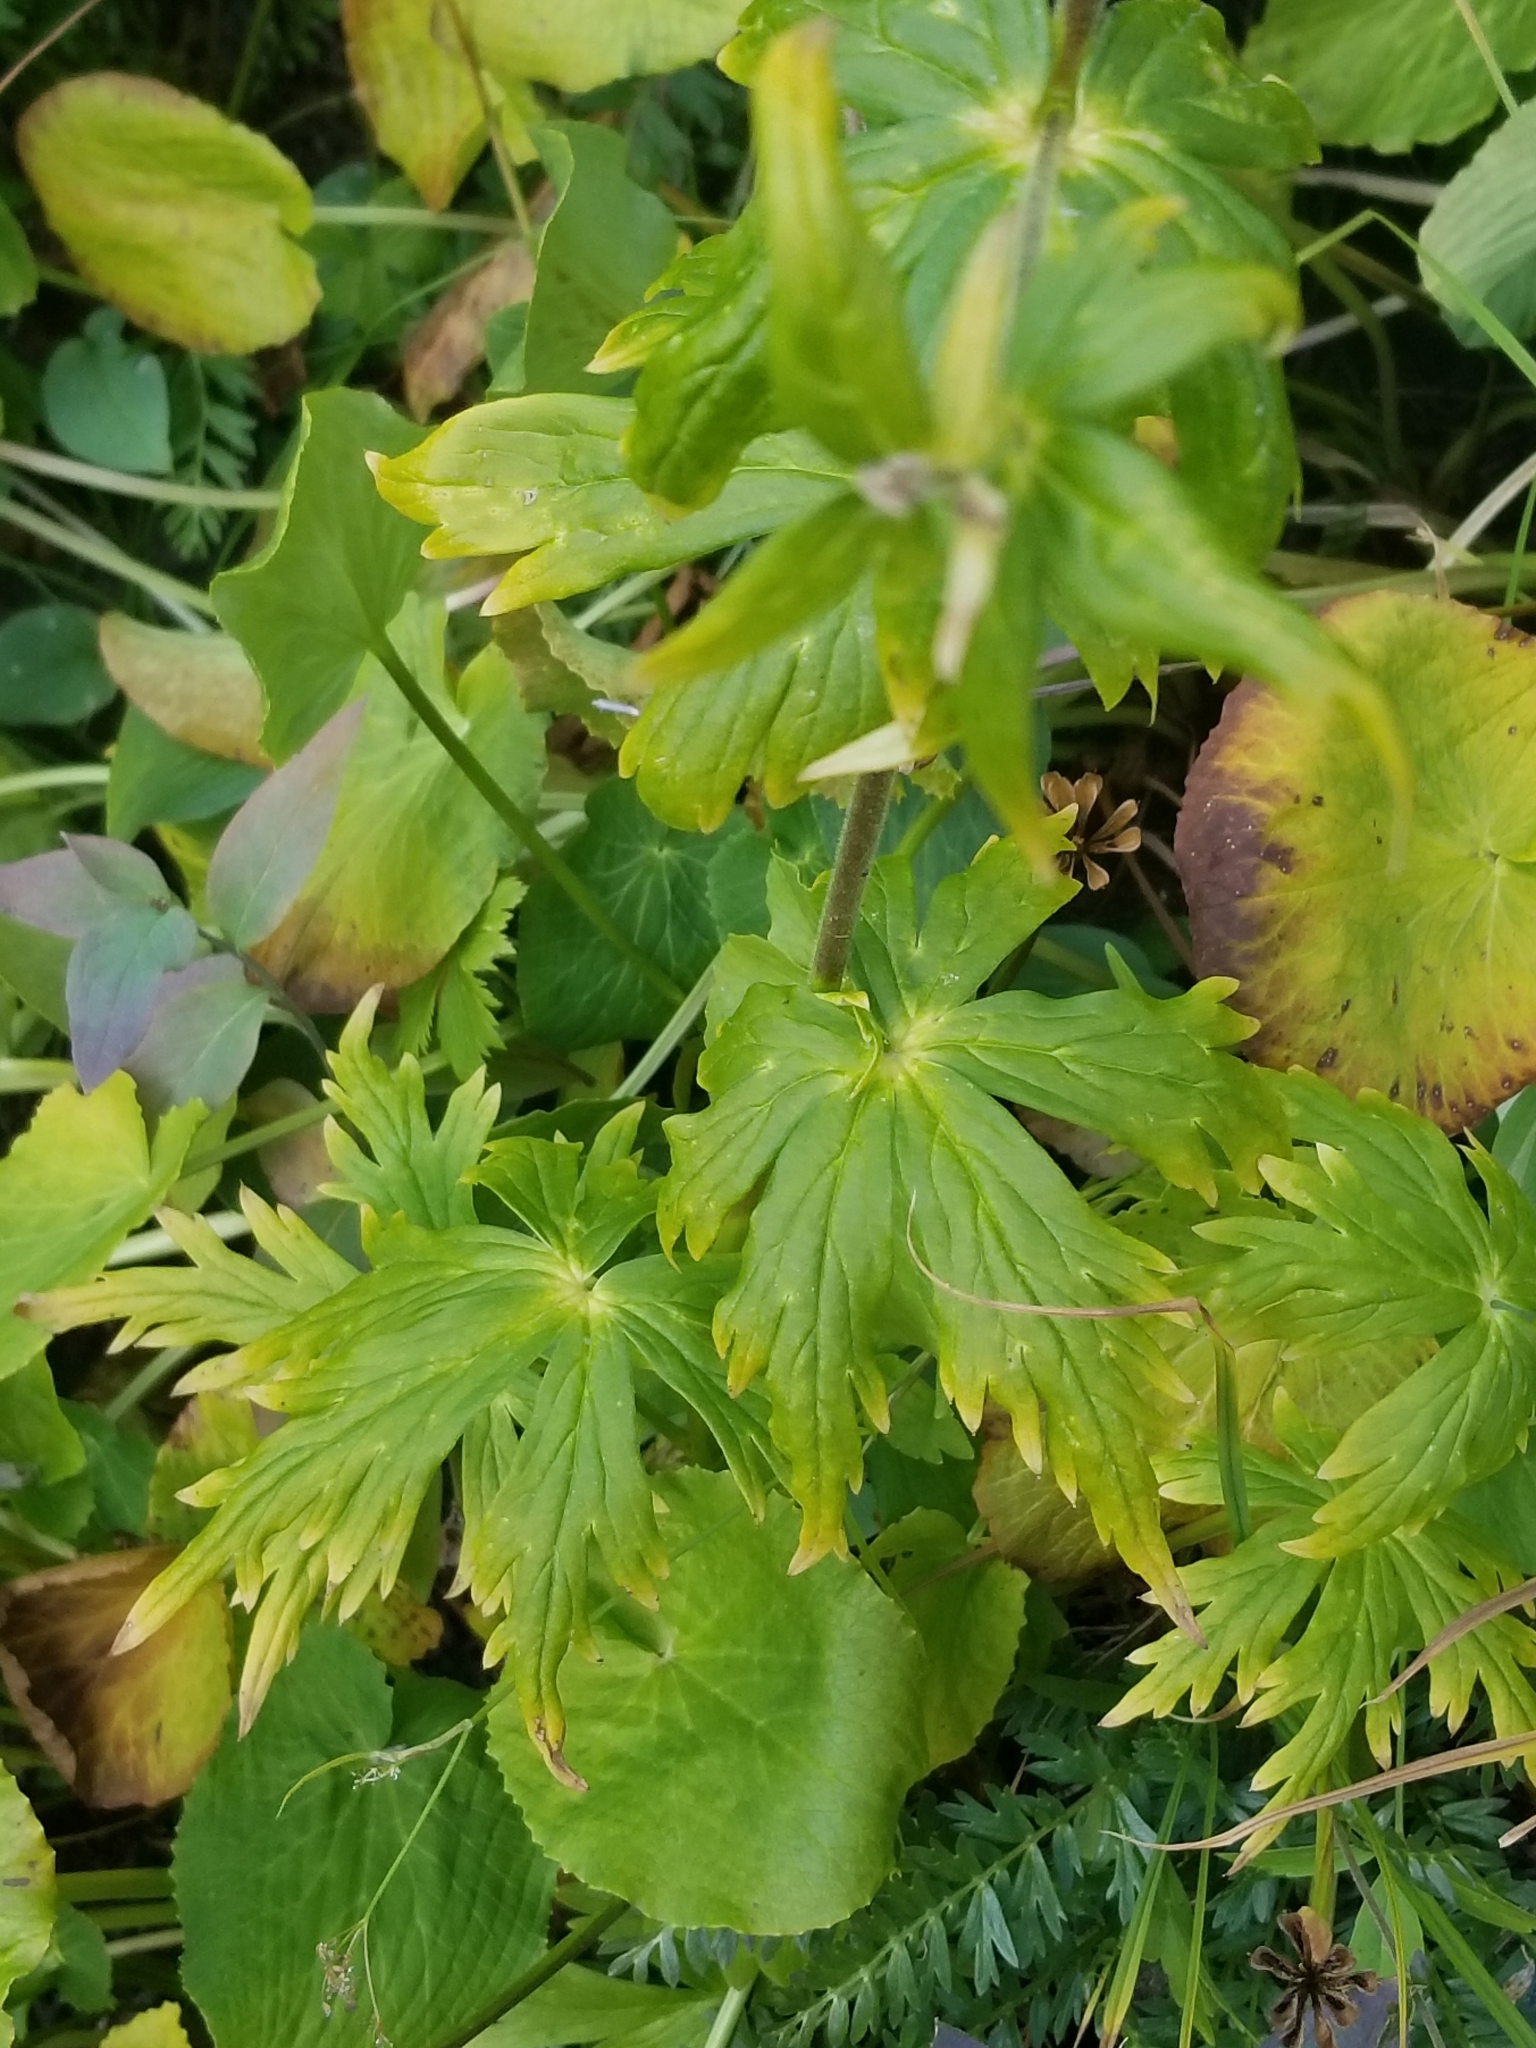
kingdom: Plantae
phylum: Tracheophyta
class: Magnoliopsida
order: Ranunculales
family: Ranunculaceae
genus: Aconitum
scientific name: Aconitum columbianum
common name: Columbia aconite
